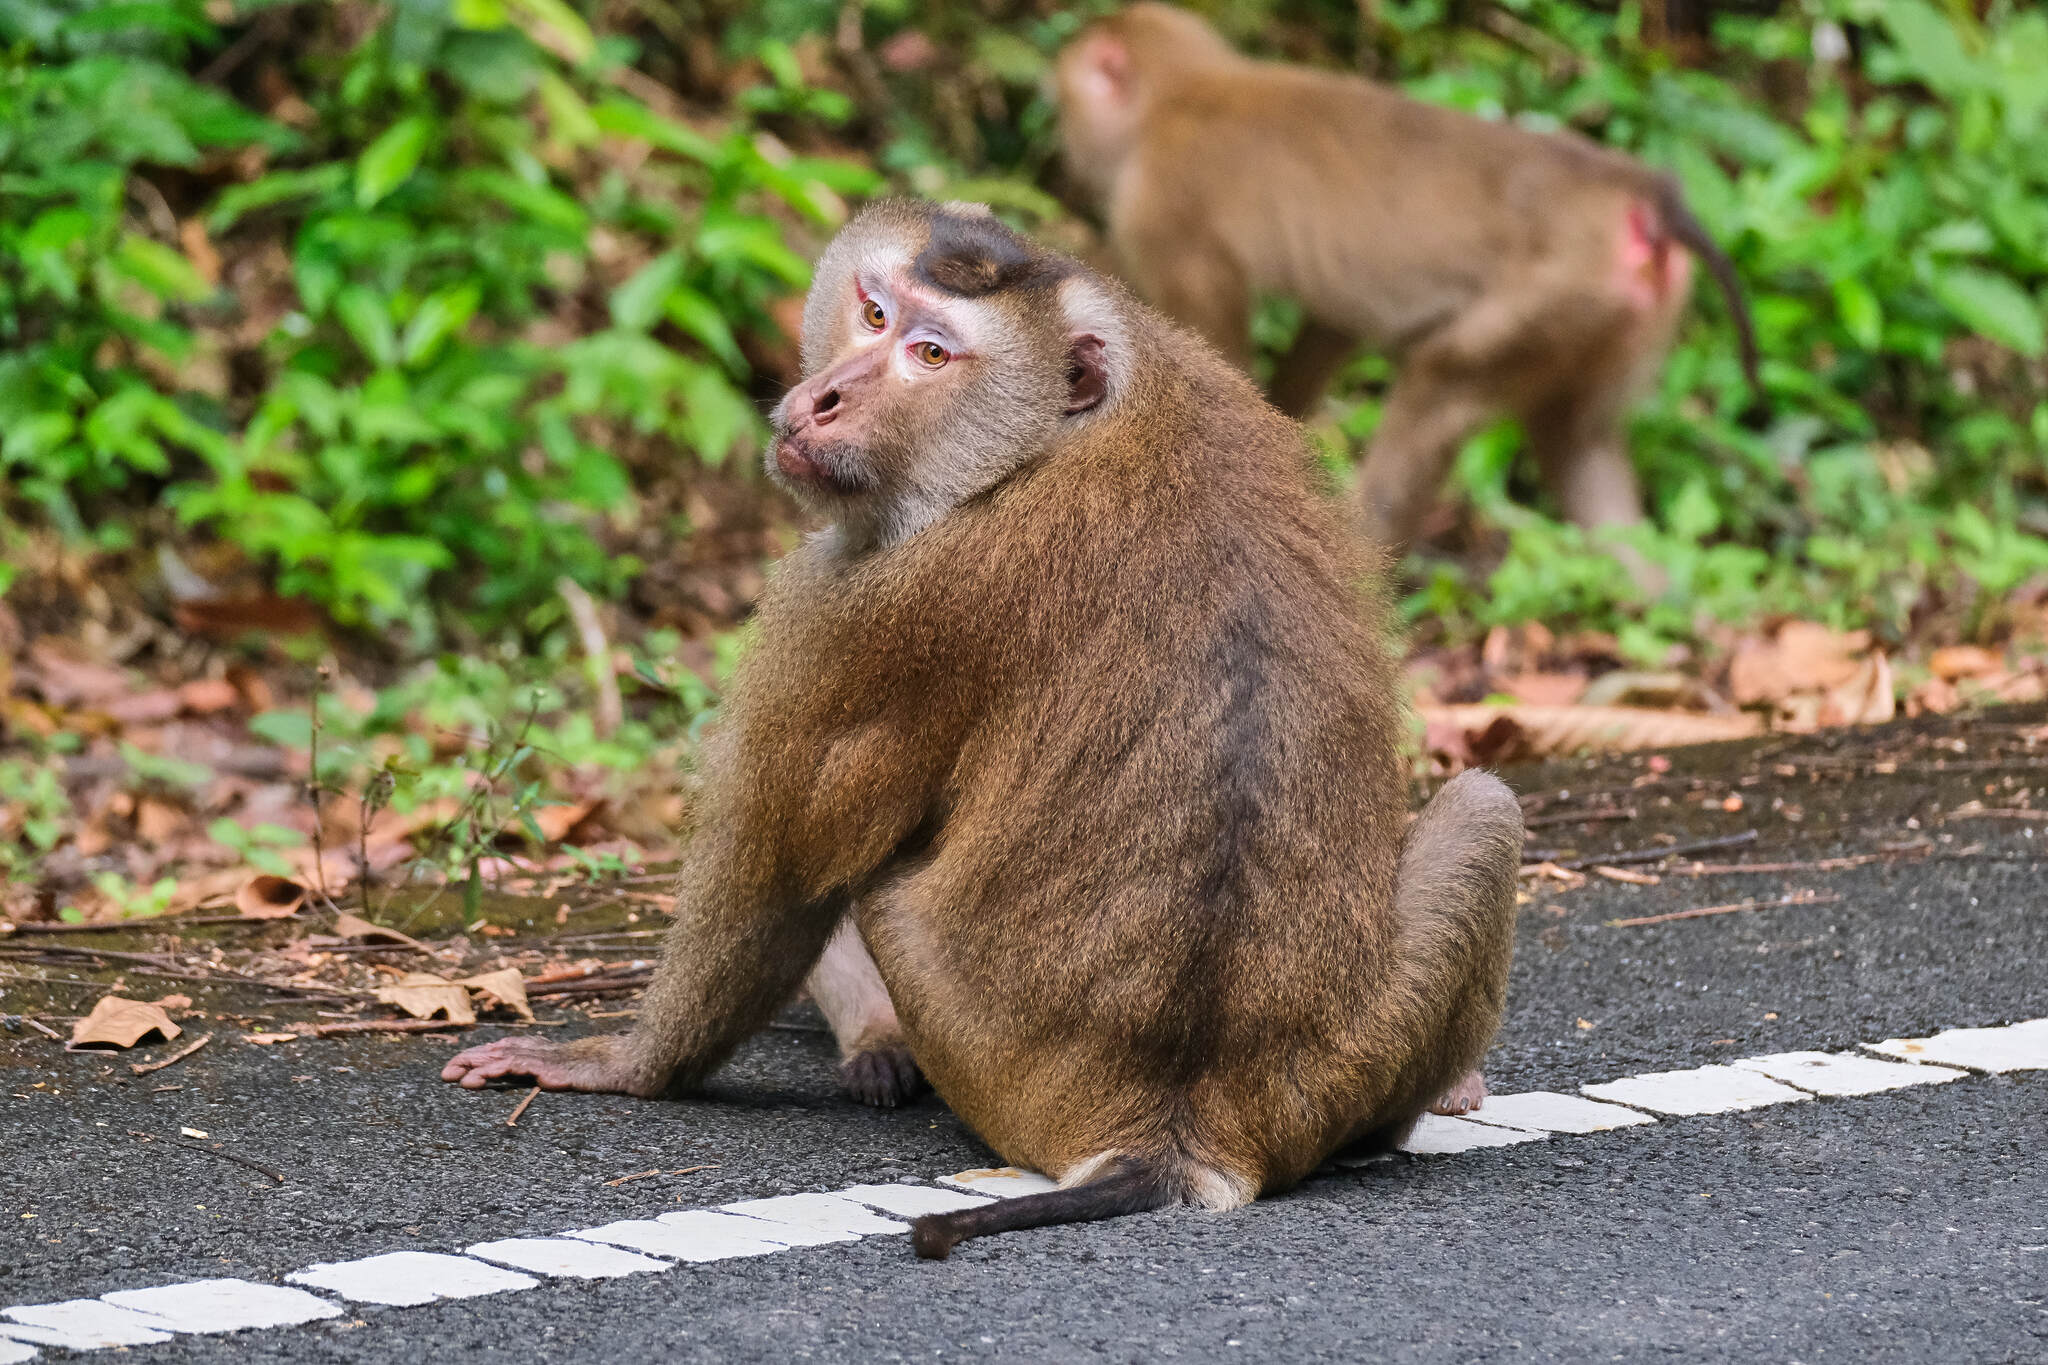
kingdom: Animalia
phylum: Chordata
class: Mammalia
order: Primates
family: Cercopithecidae
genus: Macaca
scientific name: Macaca leonina
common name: Northern pig-tailed macaque
